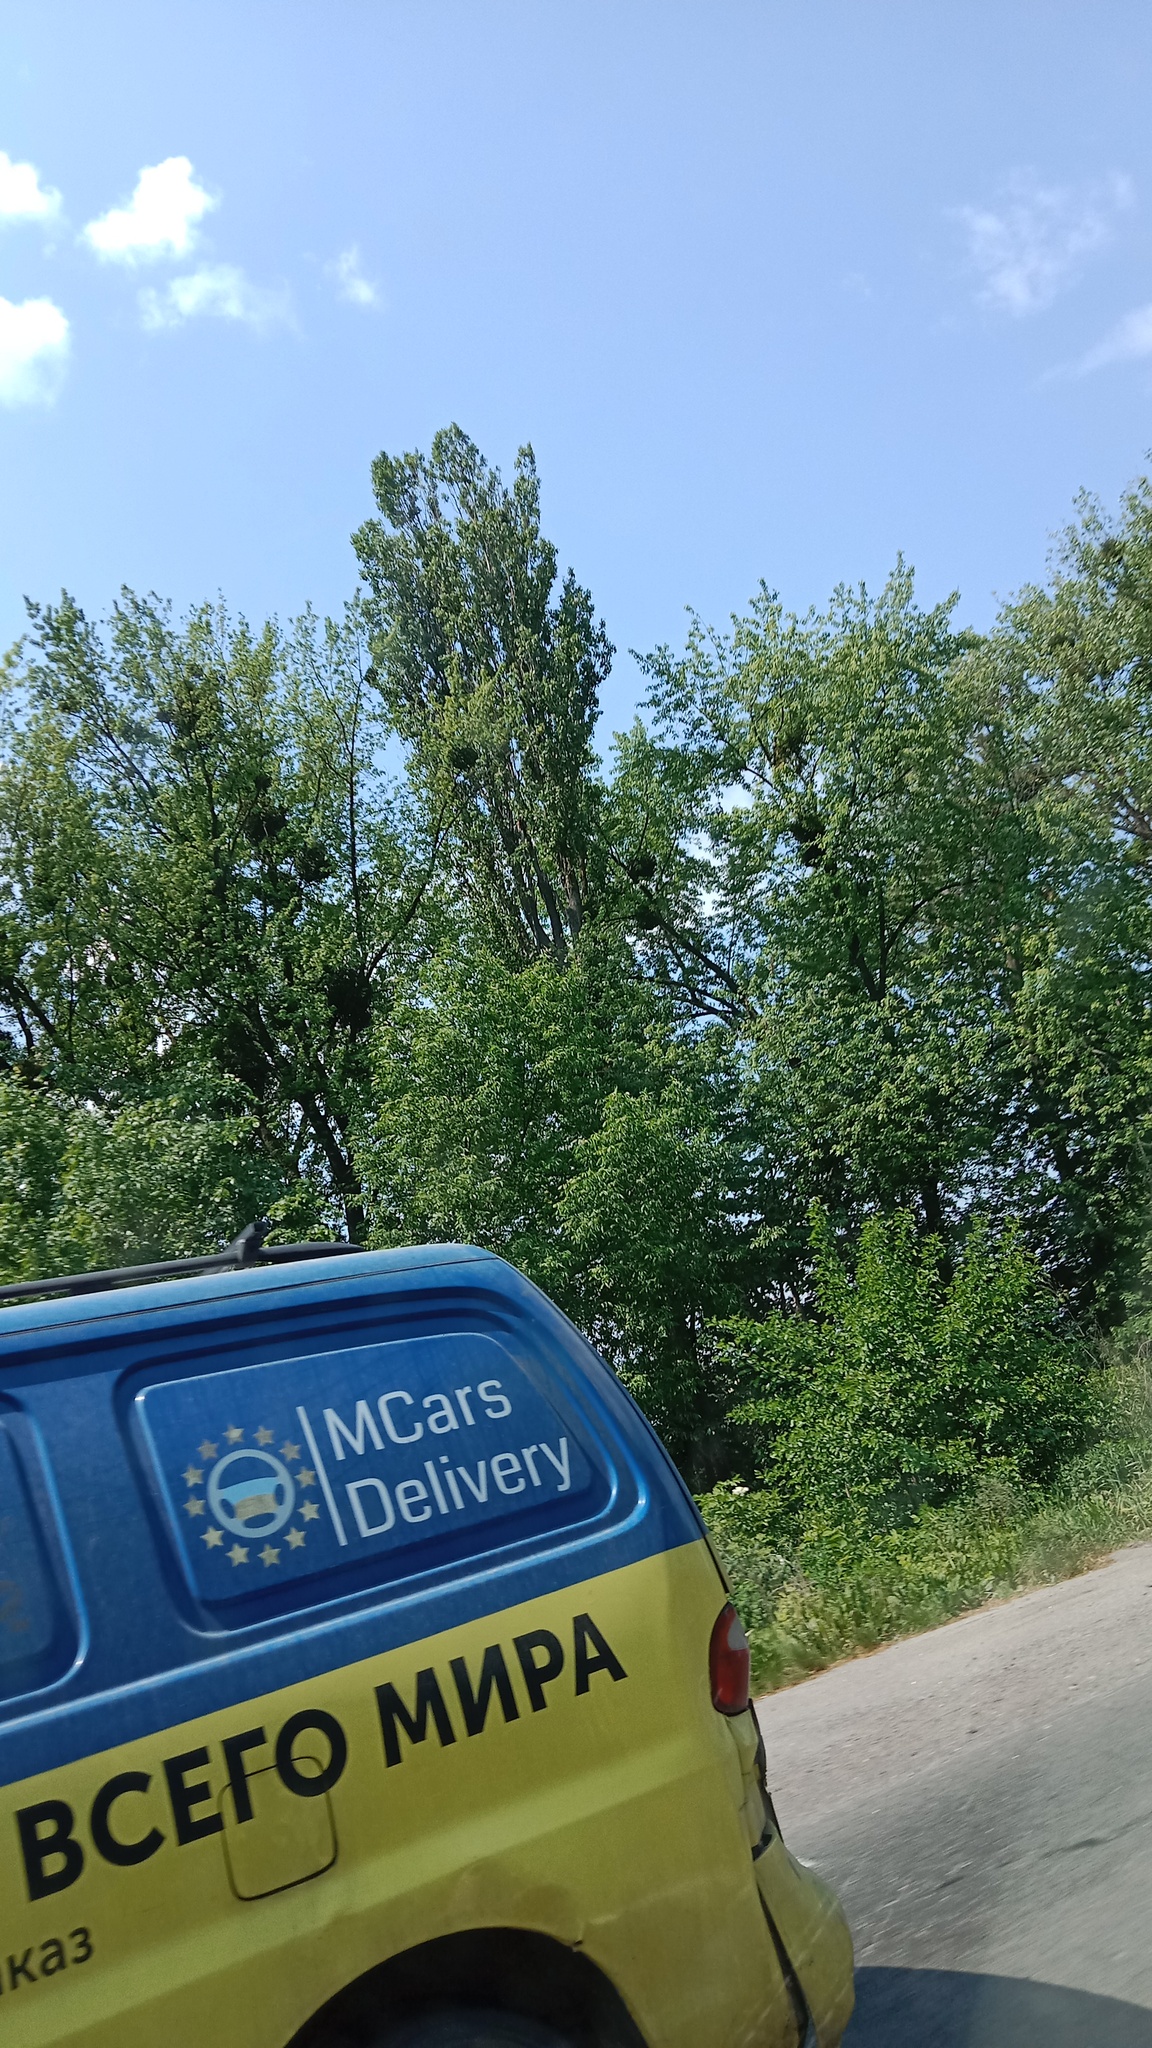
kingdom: Plantae
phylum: Tracheophyta
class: Magnoliopsida
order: Santalales
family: Viscaceae
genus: Viscum
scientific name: Viscum album
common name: Mistletoe
